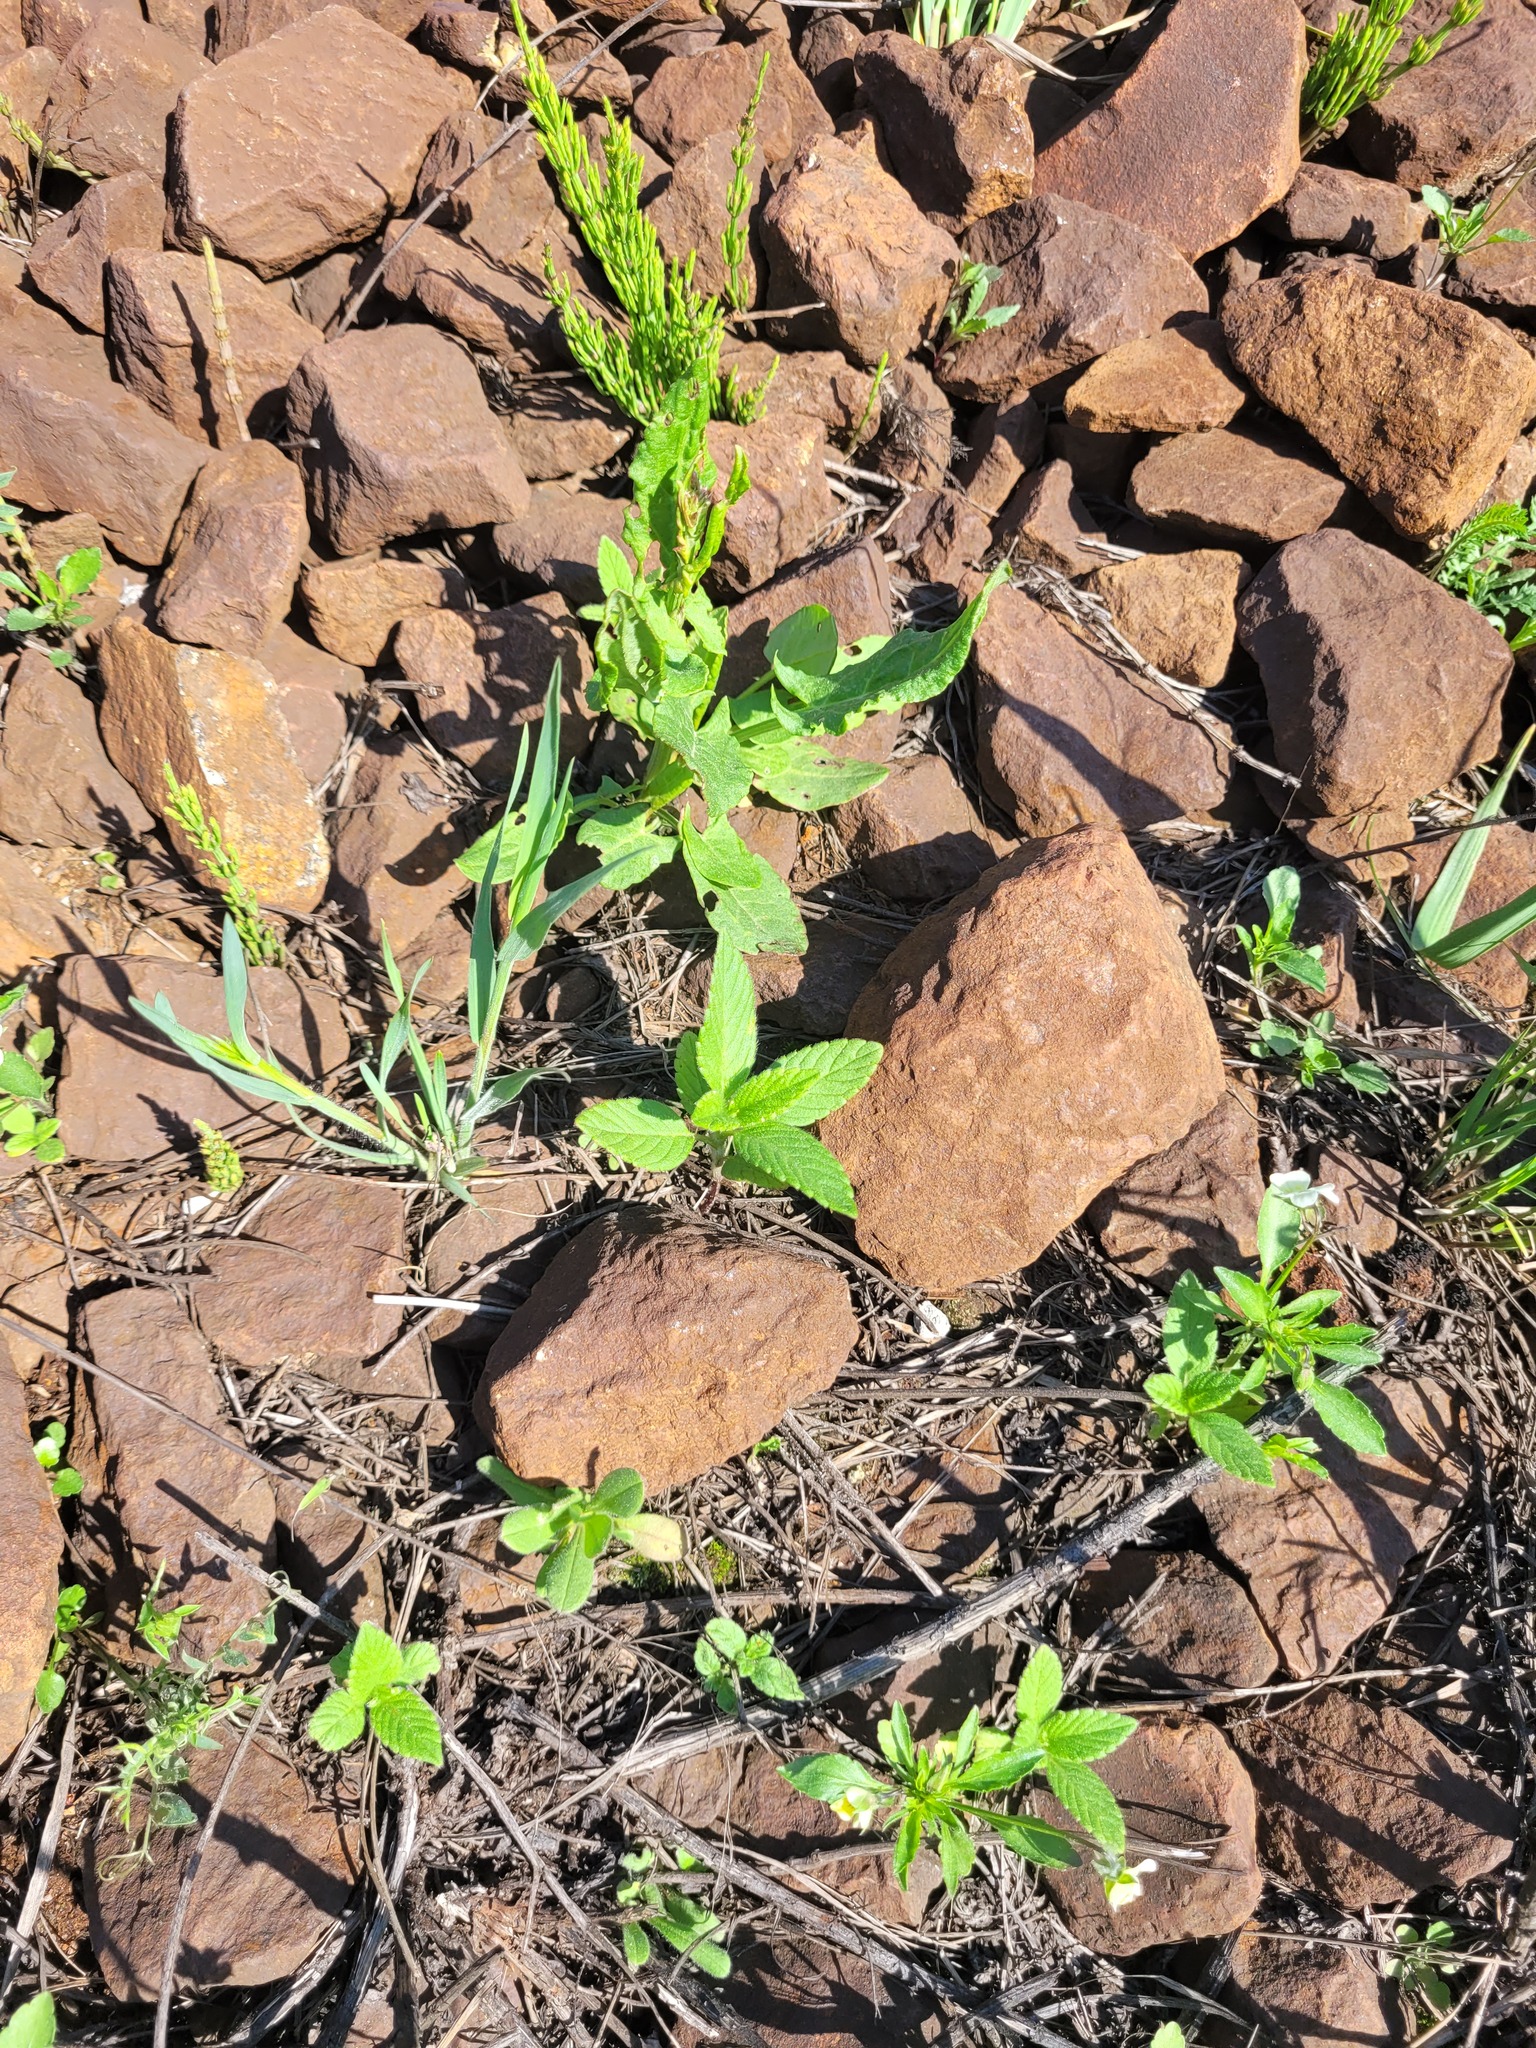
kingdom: Plantae
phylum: Tracheophyta
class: Magnoliopsida
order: Lamiales
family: Lamiaceae
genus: Galeopsis
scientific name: Galeopsis
